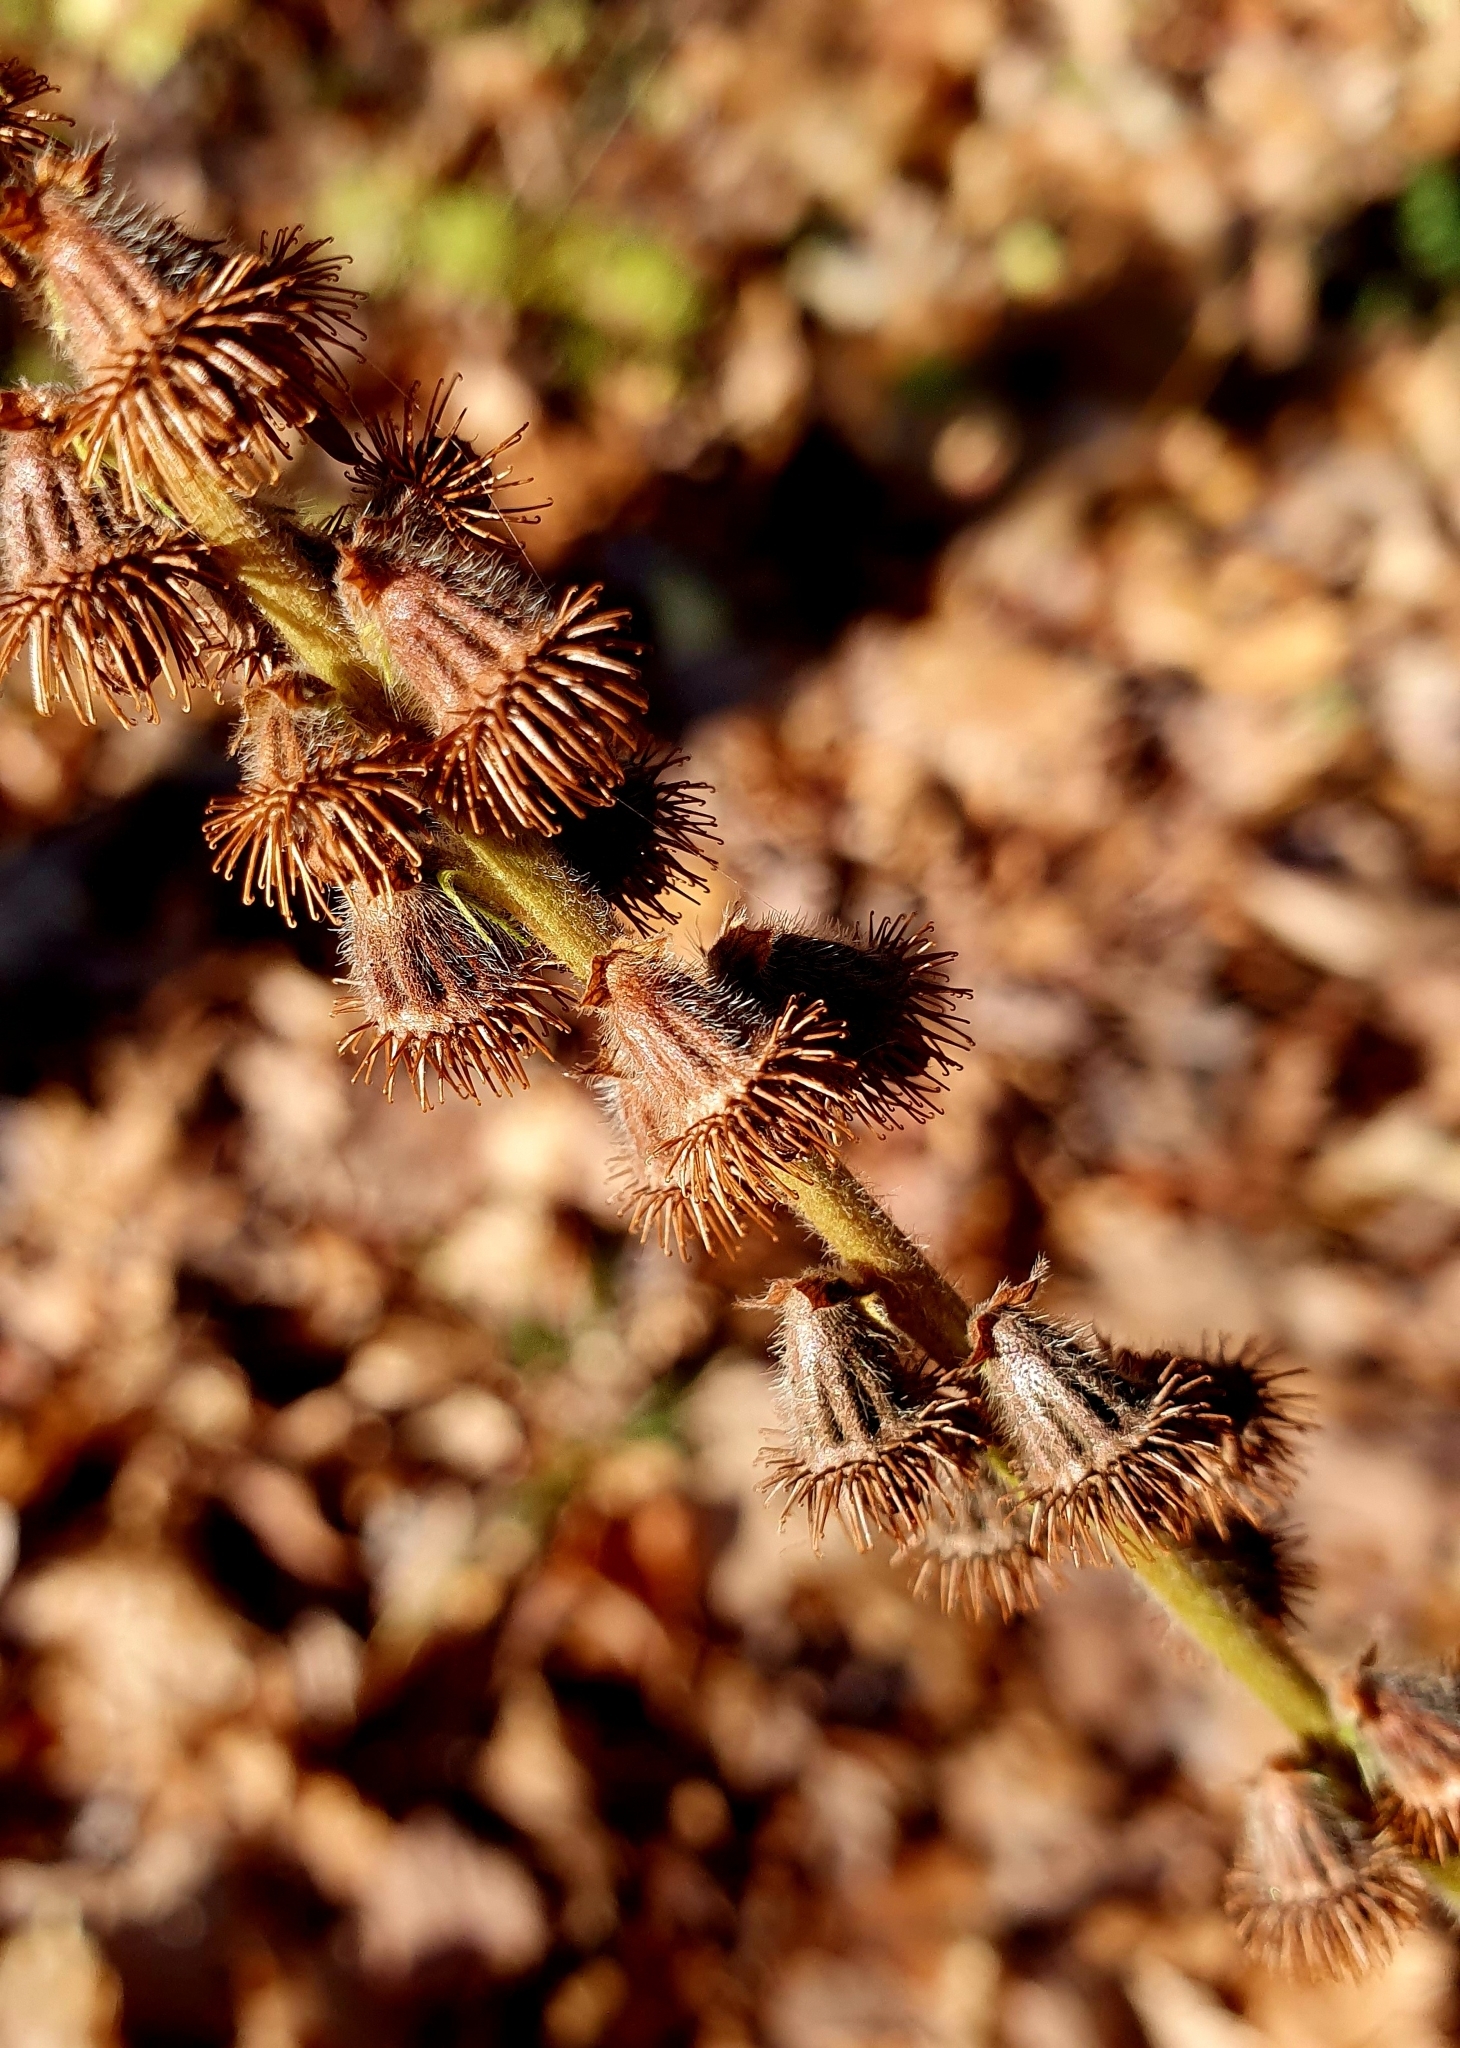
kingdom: Plantae
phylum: Tracheophyta
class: Magnoliopsida
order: Rosales
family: Rosaceae
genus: Agrimonia
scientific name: Agrimonia eupatoria
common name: Agrimony
